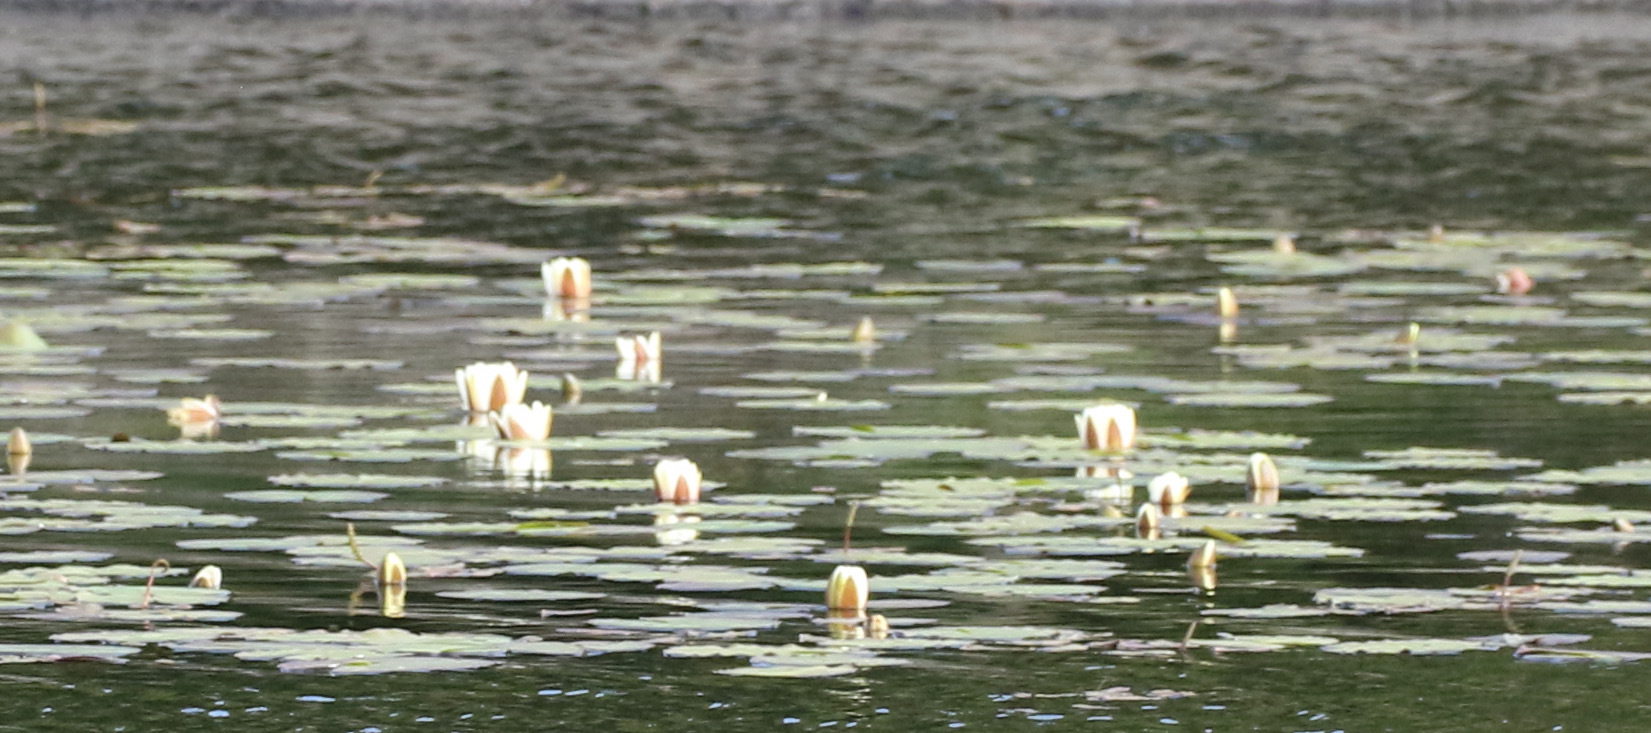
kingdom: Plantae
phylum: Tracheophyta
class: Magnoliopsida
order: Nymphaeales
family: Nymphaeaceae
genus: Nymphaea
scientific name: Nymphaea alba
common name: White water-lily
